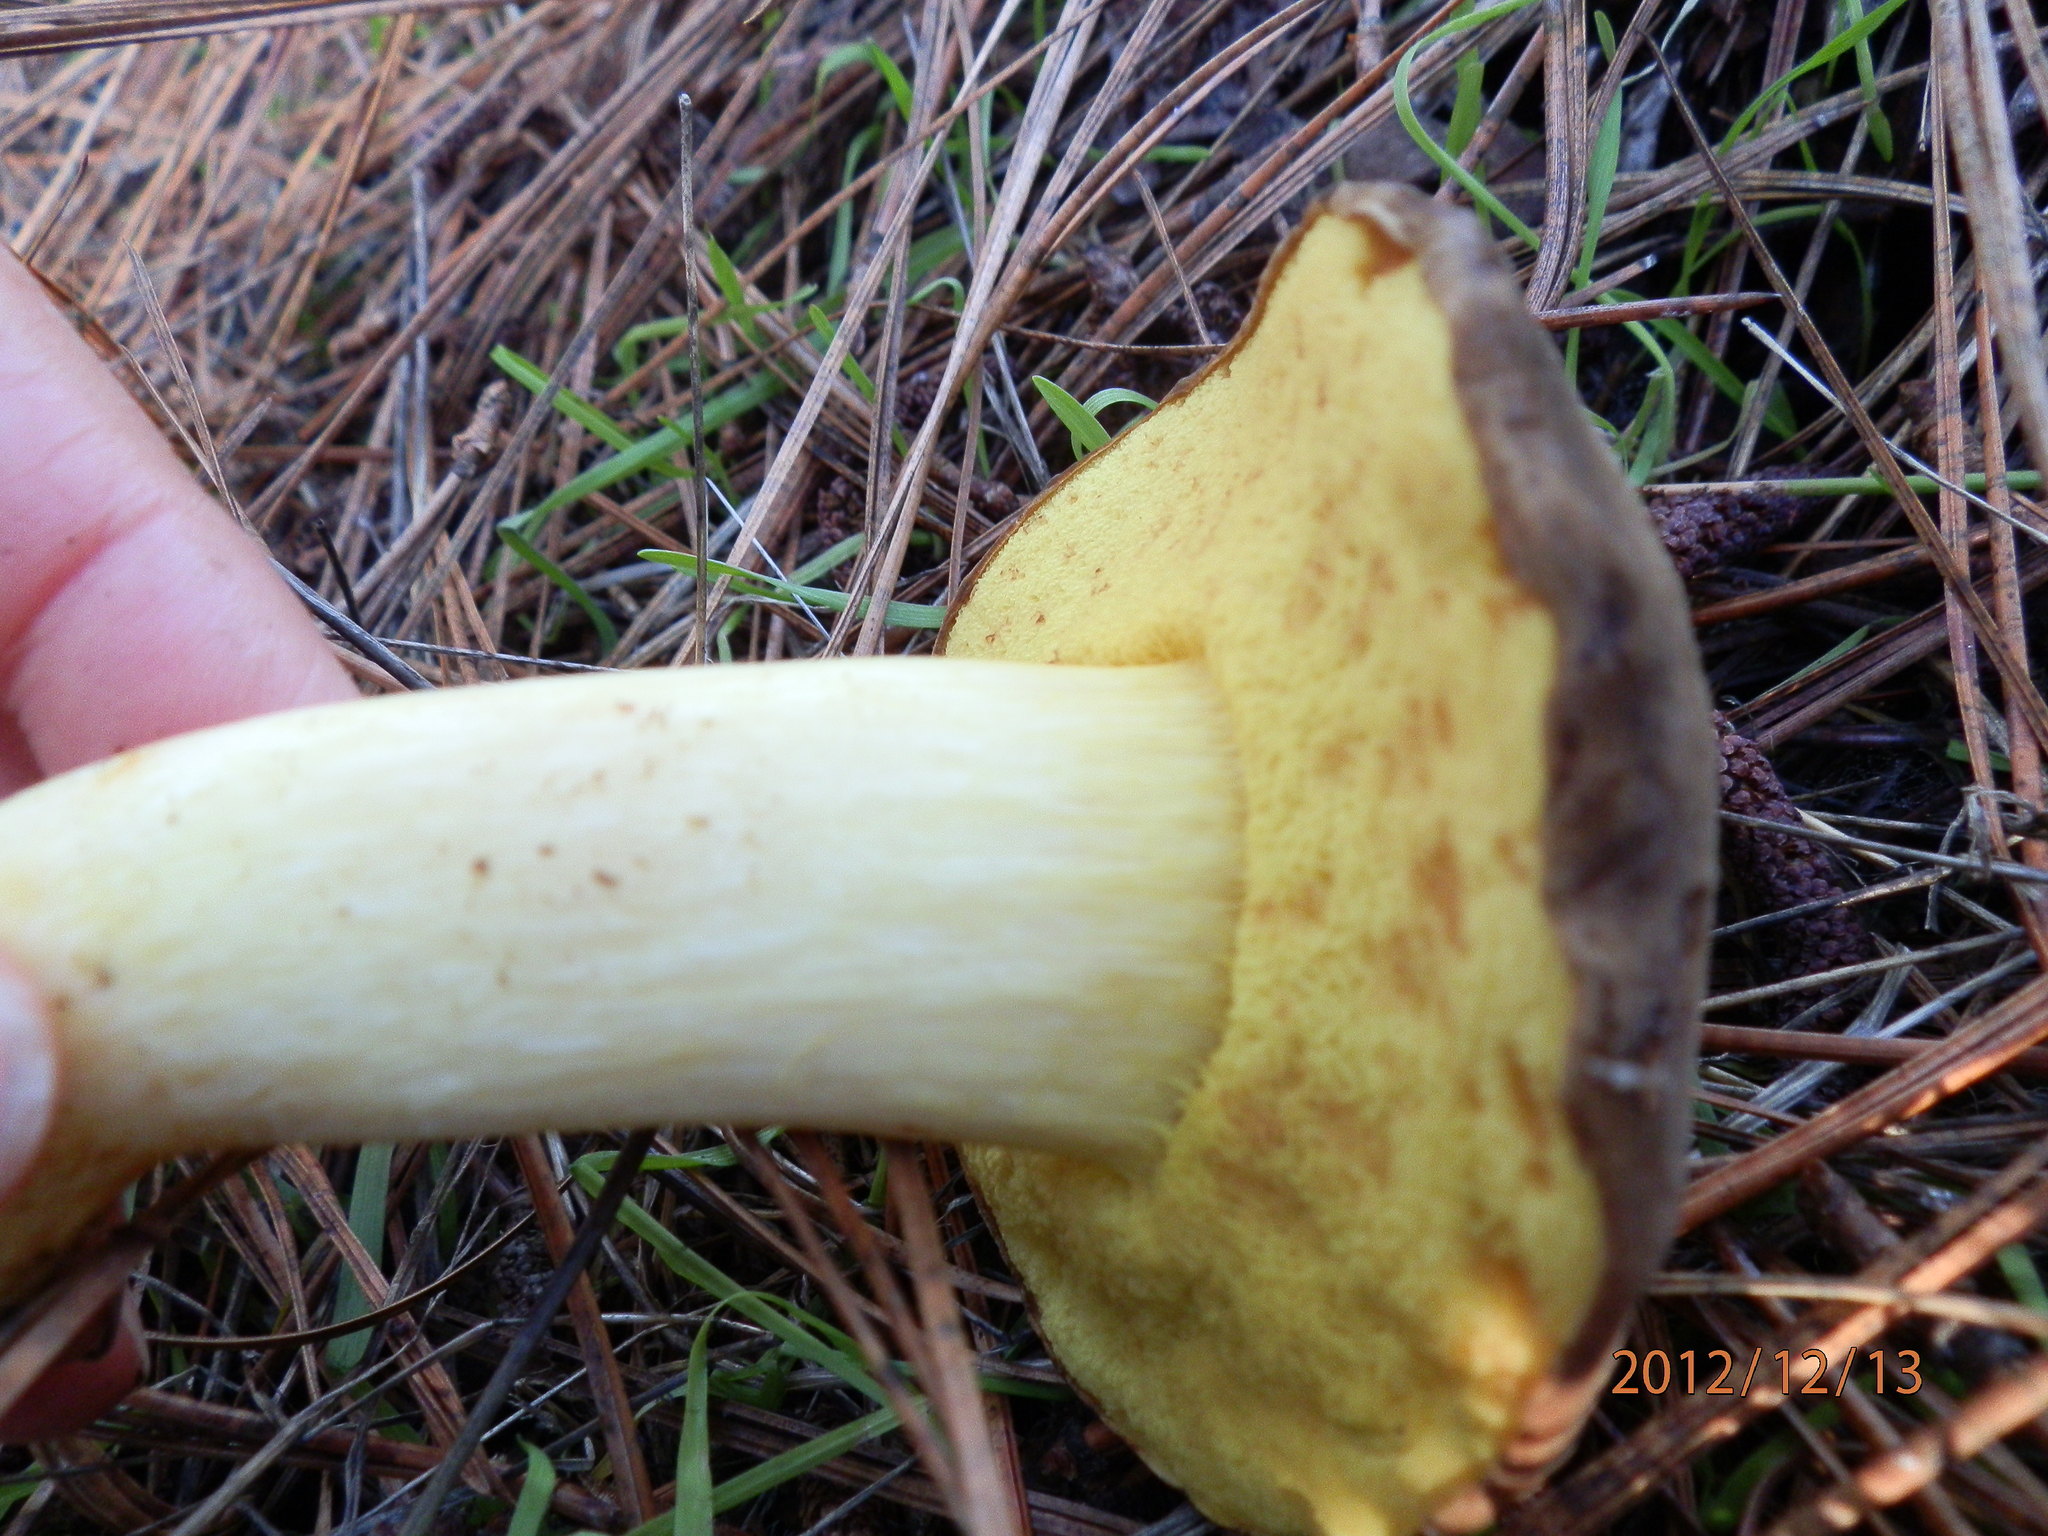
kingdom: Fungi
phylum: Basidiomycota
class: Agaricomycetes
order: Boletales
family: Boletaceae
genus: Xerocomus
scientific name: Xerocomus subtomentosus
